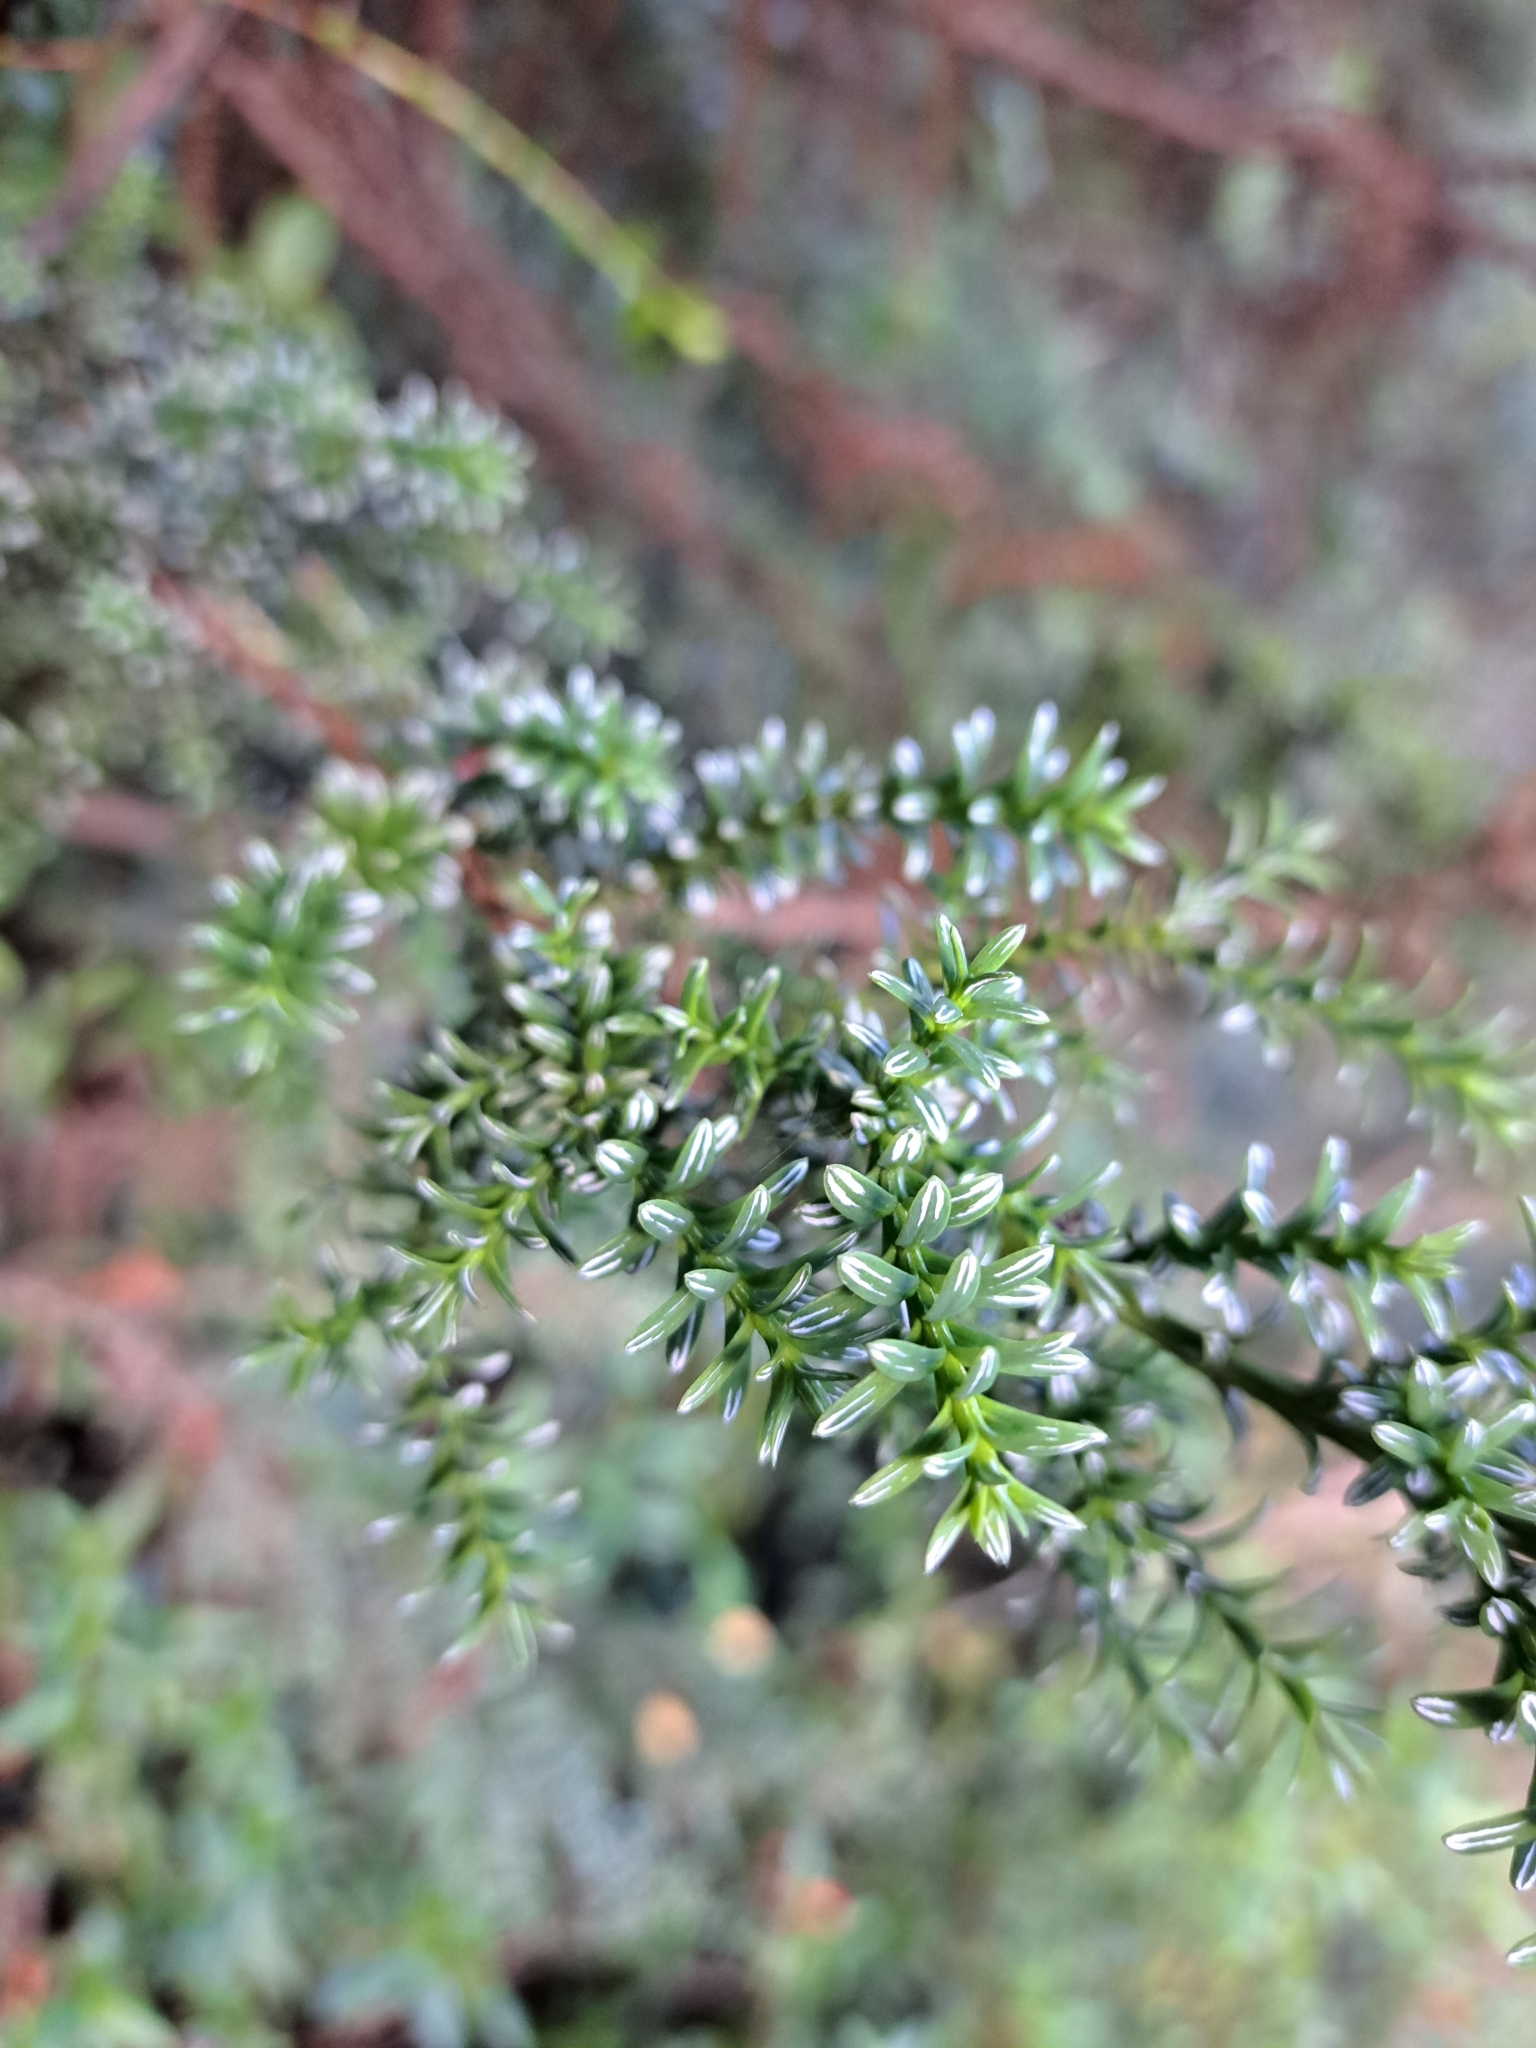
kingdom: Plantae
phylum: Tracheophyta
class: Pinopsida
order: Pinales
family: Cupressaceae
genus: Fitzroya
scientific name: Fitzroya cupressoides
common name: Patagonian cypress
